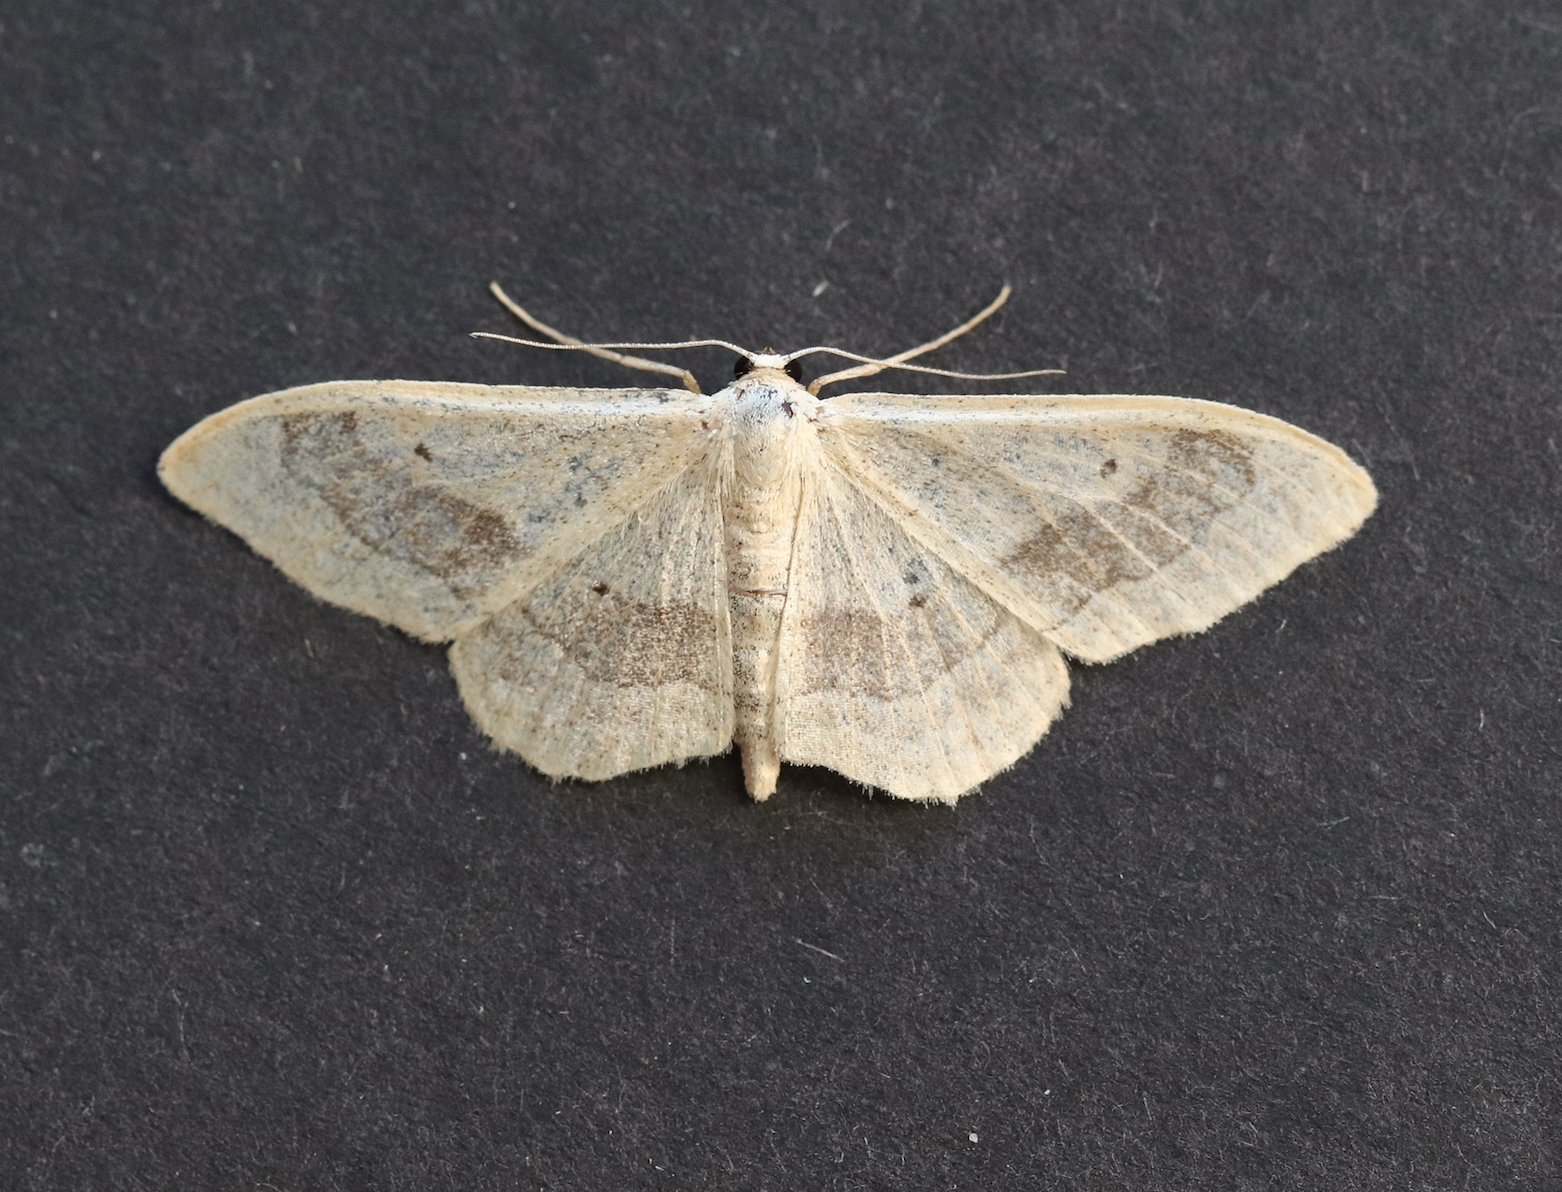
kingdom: Animalia
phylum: Arthropoda
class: Insecta
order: Lepidoptera
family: Geometridae
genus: Idaea
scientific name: Idaea aversata
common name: Riband wave
